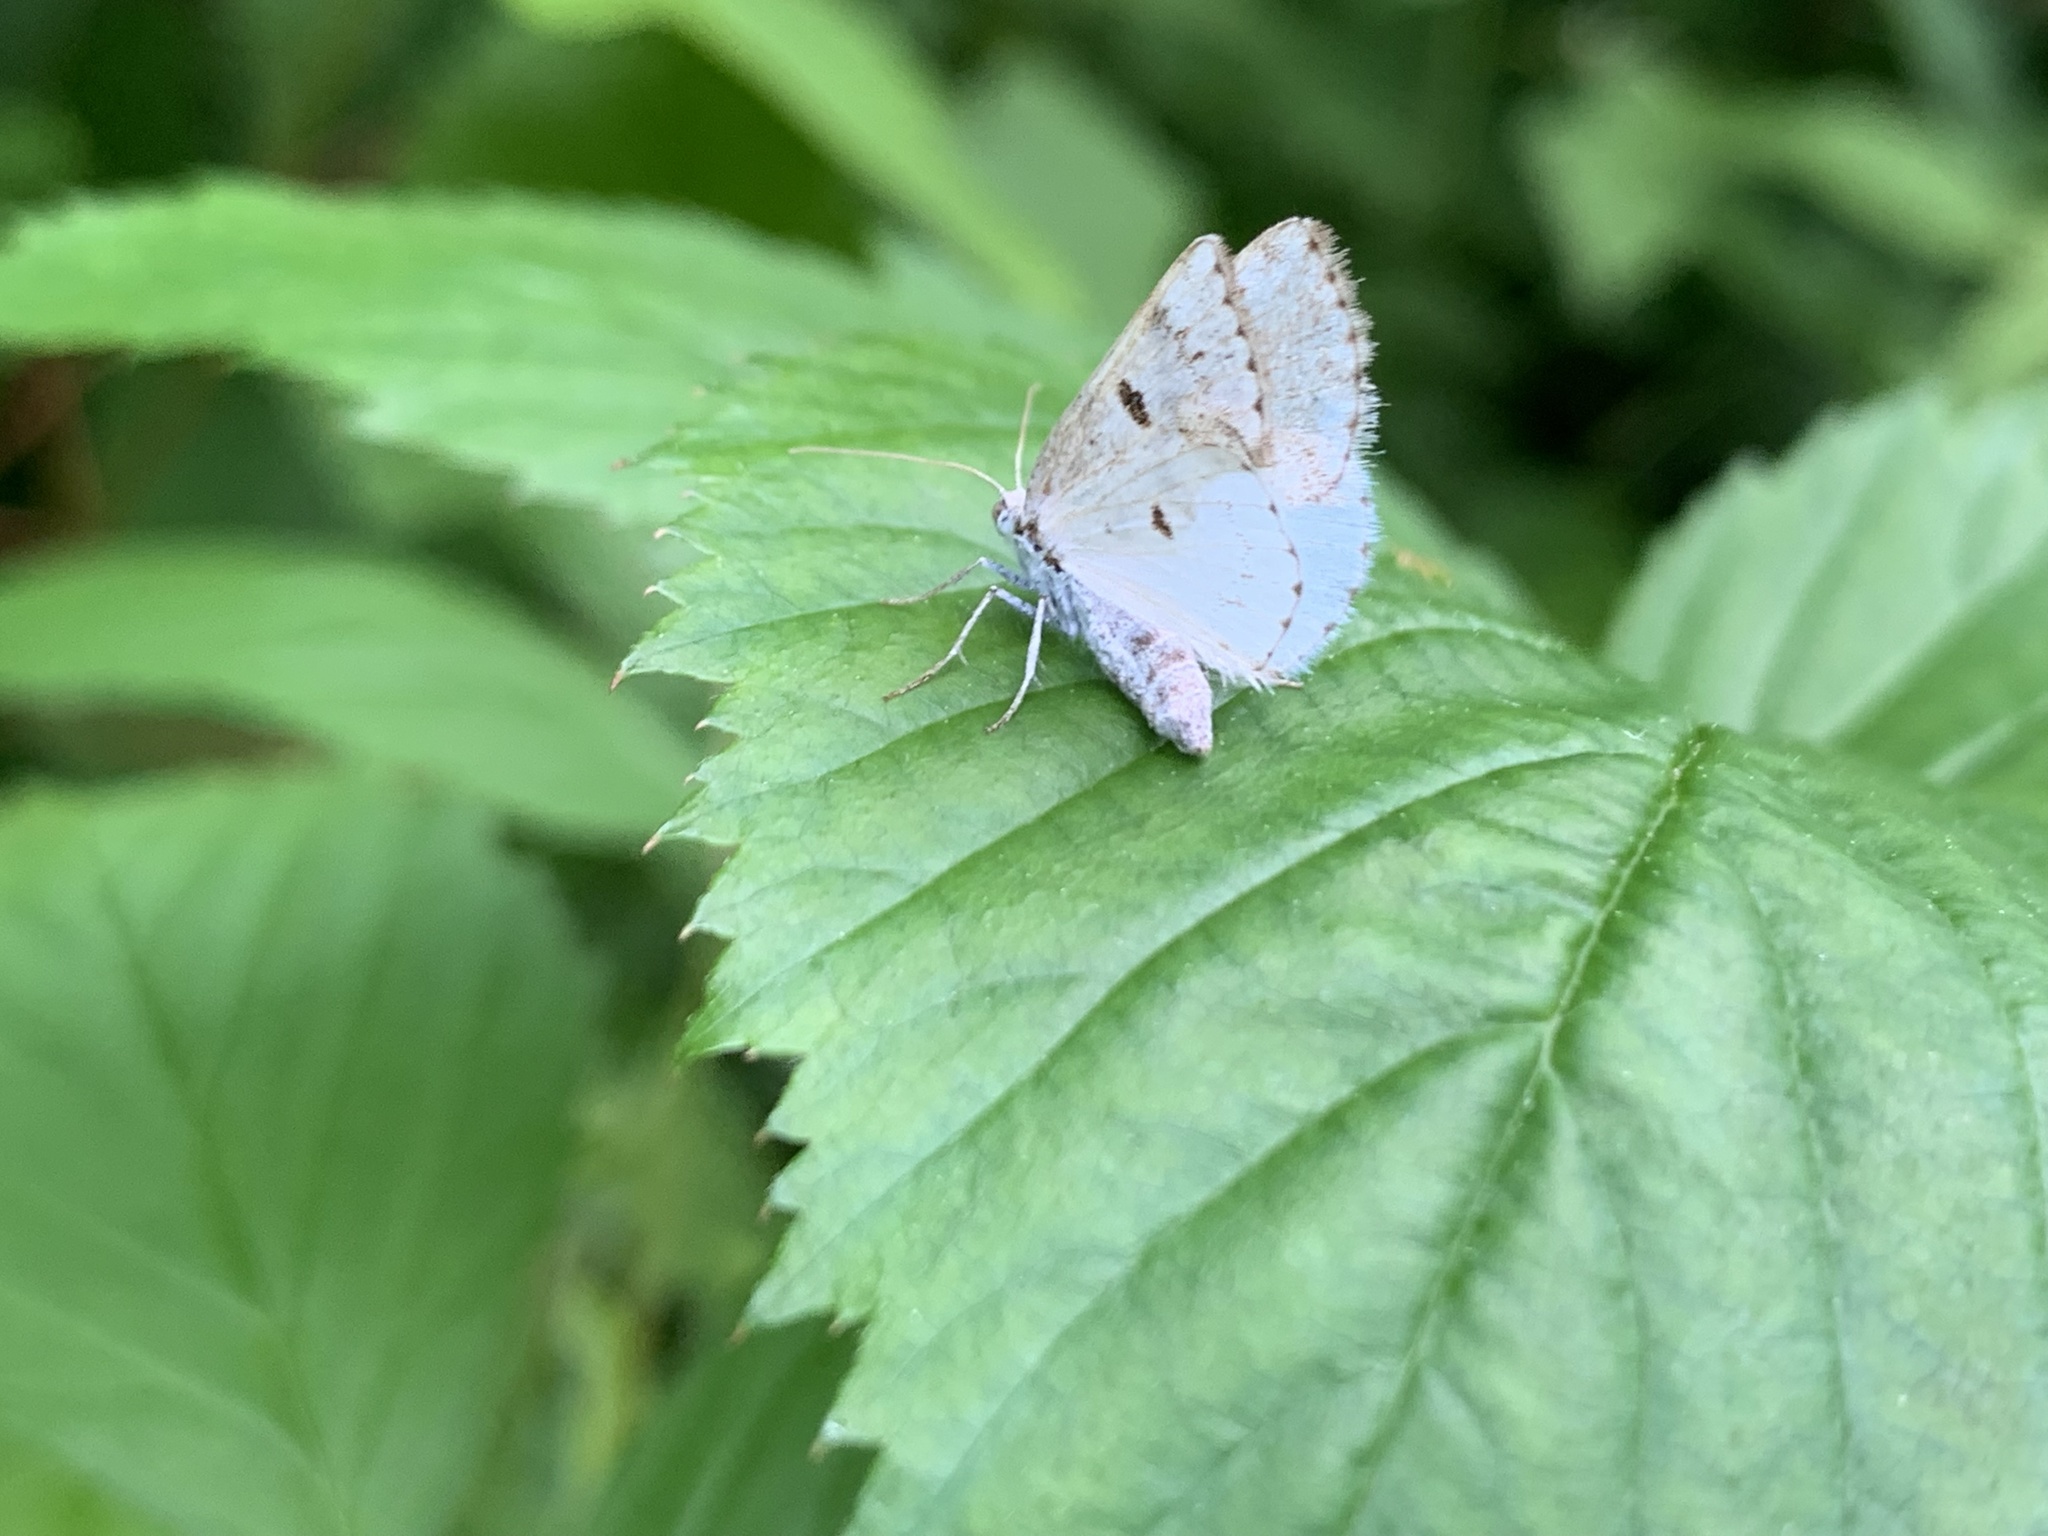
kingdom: Animalia
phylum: Arthropoda
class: Insecta
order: Lepidoptera
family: Geometridae
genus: Lomographa
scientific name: Lomographa semiclarata
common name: Bluish spring moth
